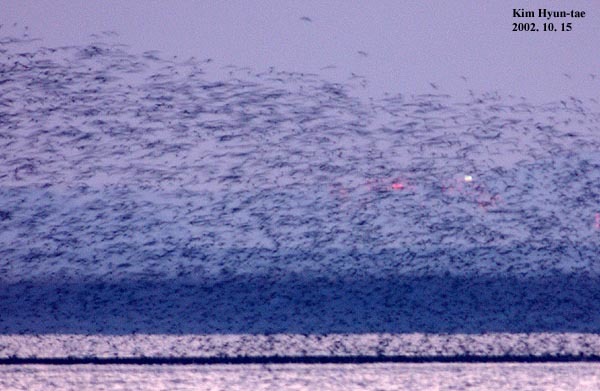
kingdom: Animalia
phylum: Chordata
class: Aves
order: Anseriformes
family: Anatidae
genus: Sibirionetta
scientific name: Sibirionetta formosa
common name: Baikal teal
